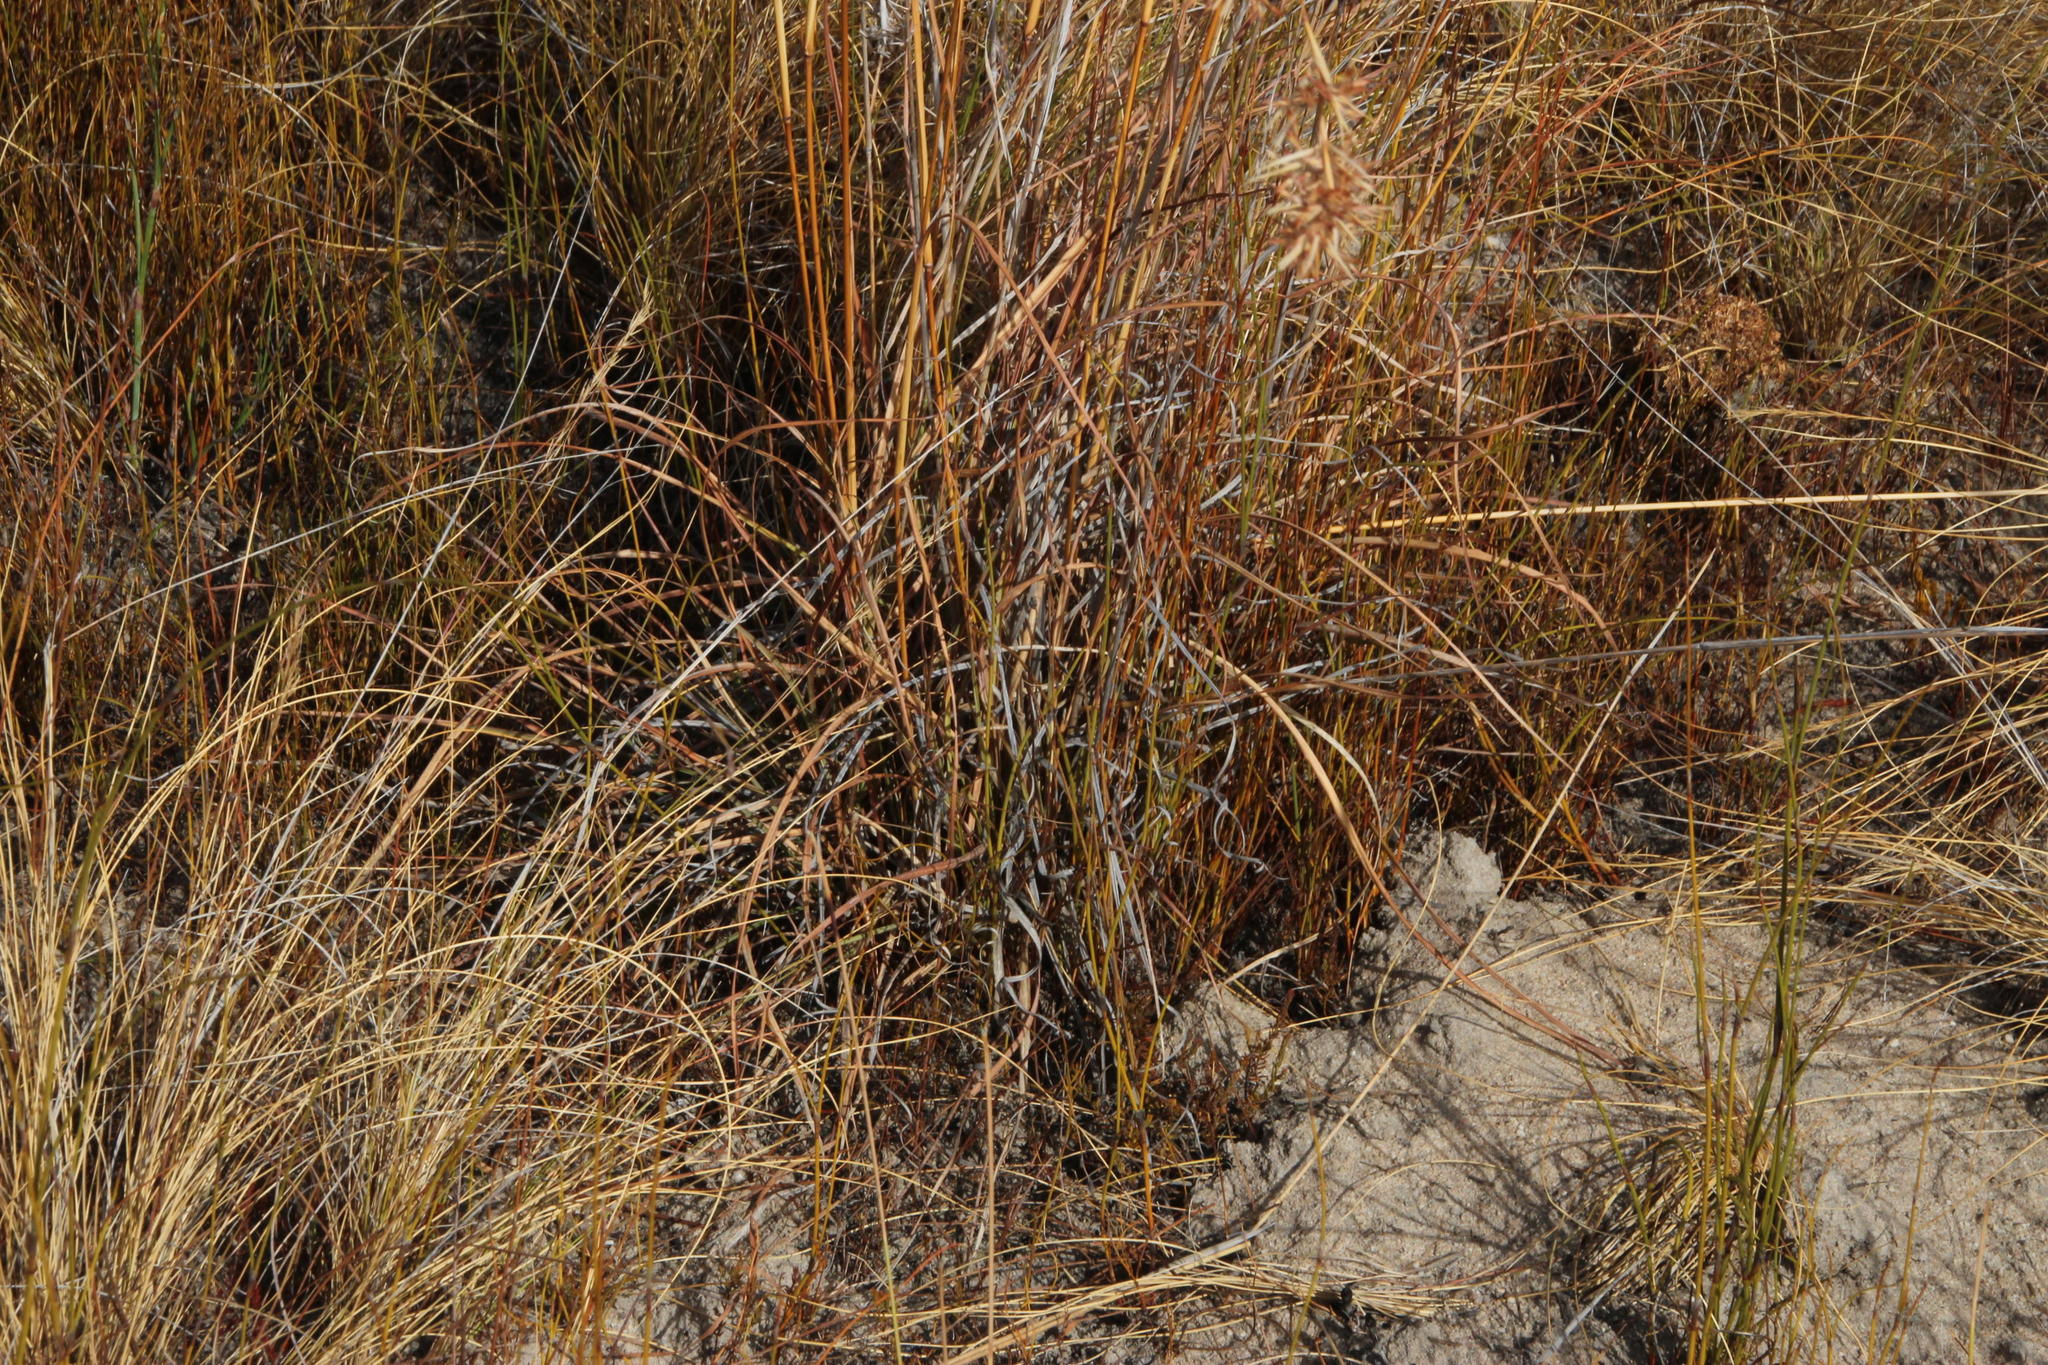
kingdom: Plantae
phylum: Tracheophyta
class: Liliopsida
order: Poales
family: Poaceae
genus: Themeda
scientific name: Themeda triandra
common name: Kangaroo grass
